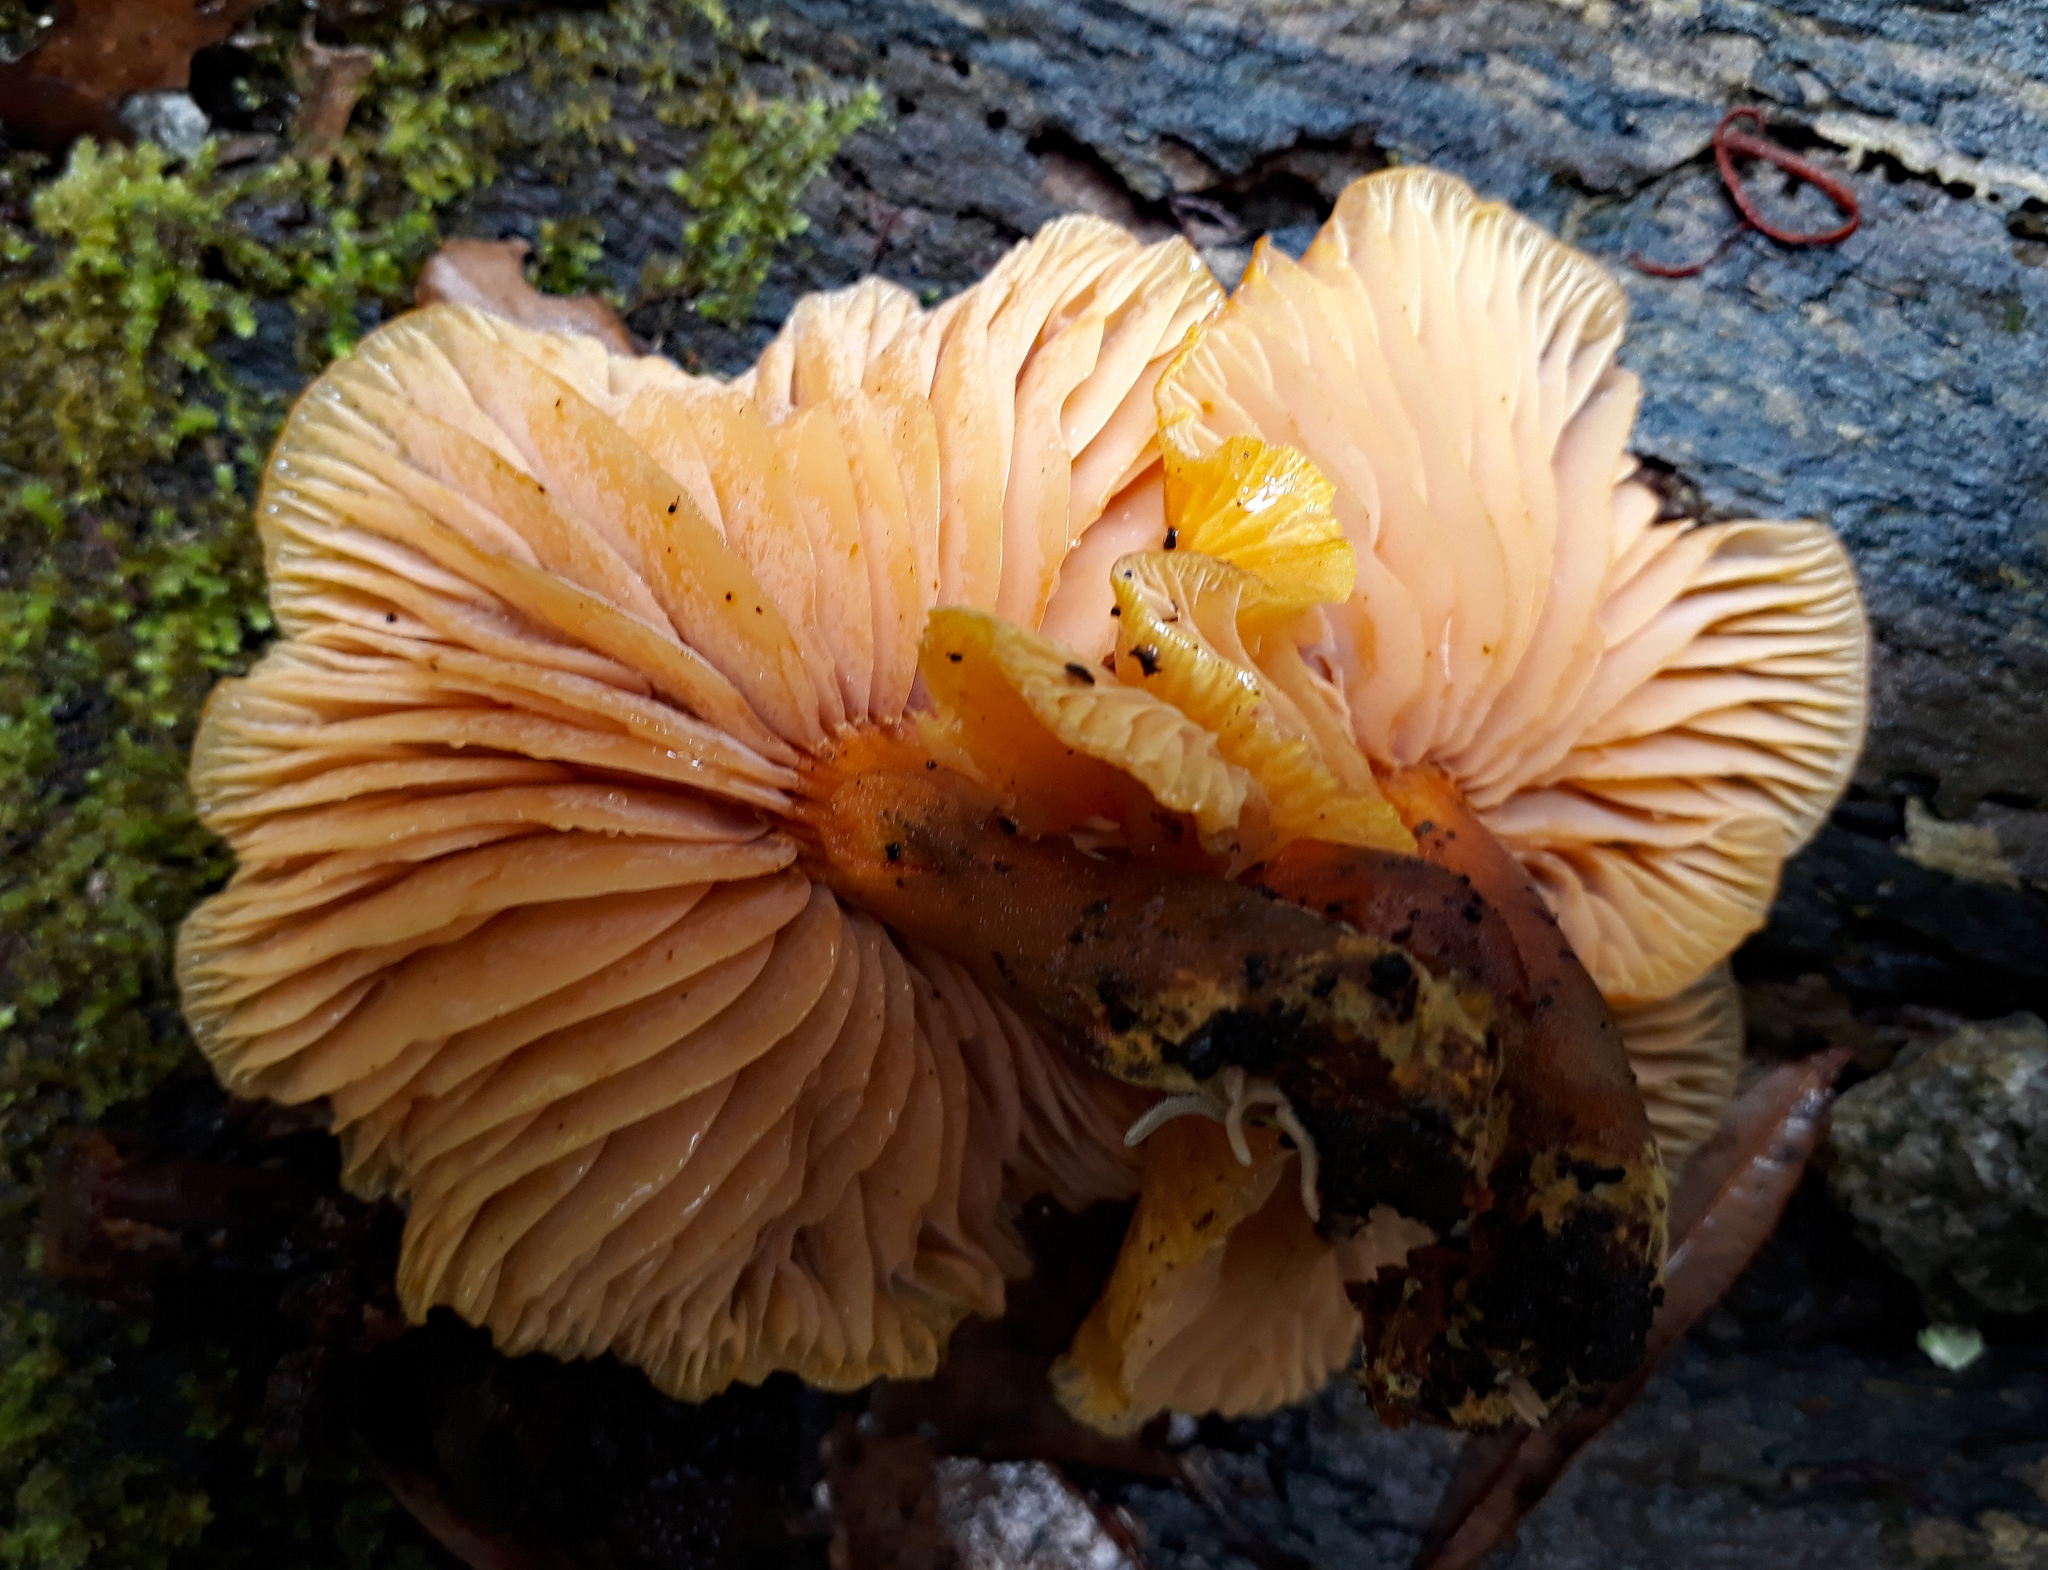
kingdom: Fungi
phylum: Basidiomycota
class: Agaricomycetes
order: Agaricales
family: Mycenaceae
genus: Heimiomyces
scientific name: Heimiomyces velutipes
